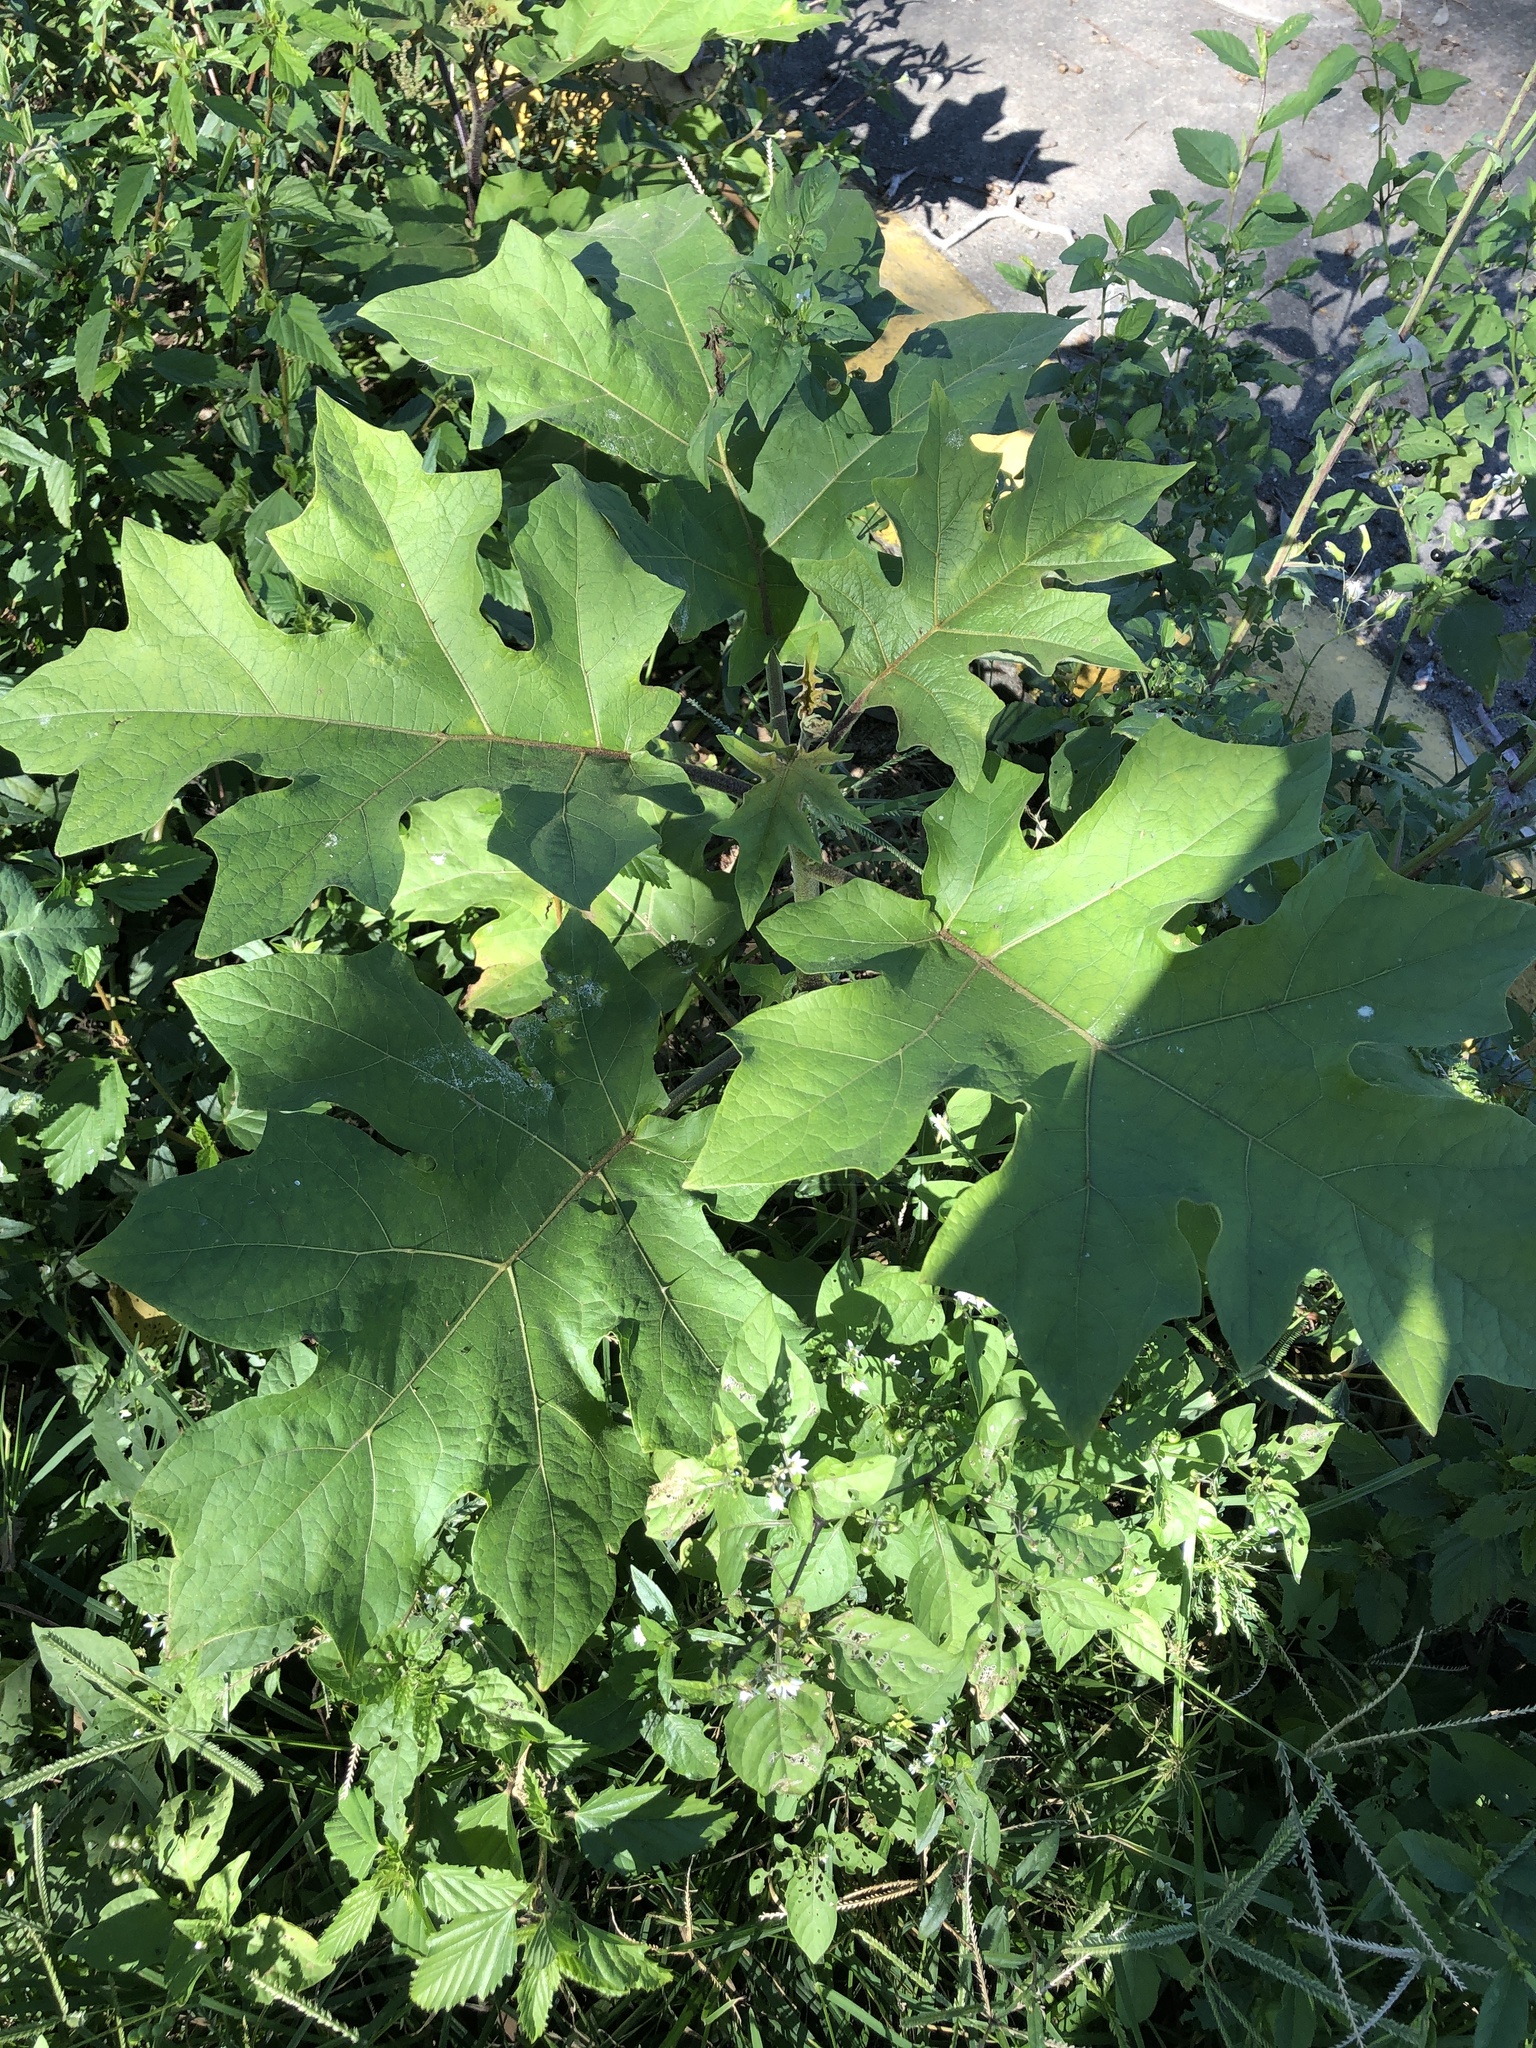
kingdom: Plantae
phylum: Tracheophyta
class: Magnoliopsida
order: Solanales
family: Solanaceae
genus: Solanum
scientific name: Solanum torvum
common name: Turkey berry
